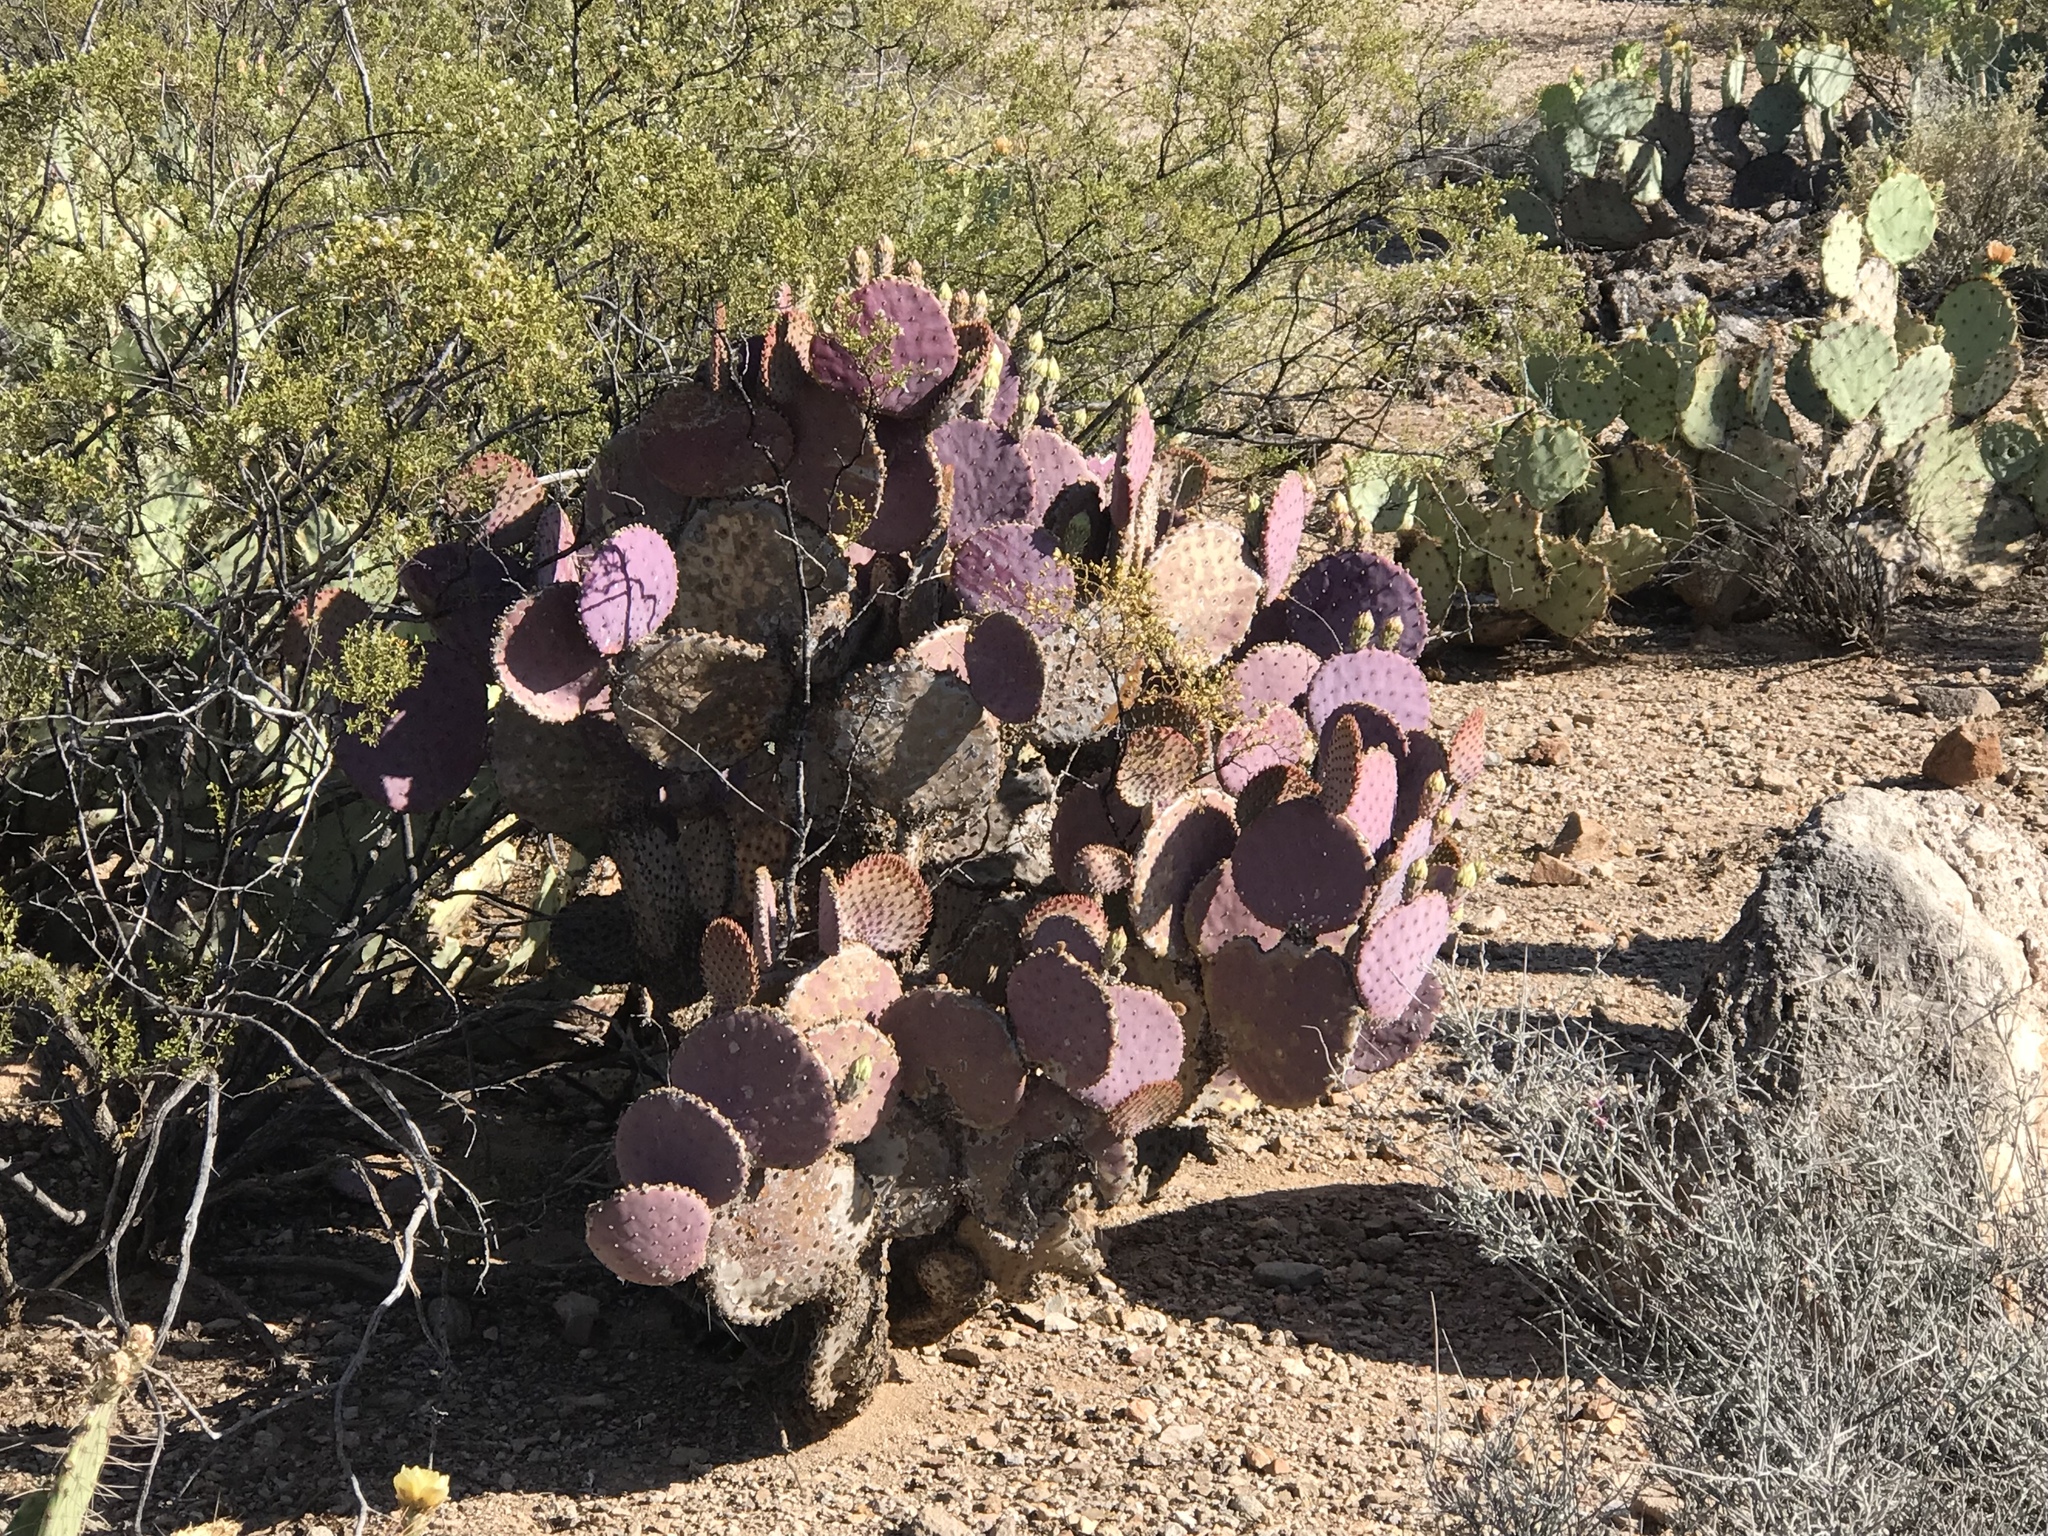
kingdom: Plantae
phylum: Tracheophyta
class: Magnoliopsida
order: Caryophyllales
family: Cactaceae
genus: Opuntia
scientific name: Opuntia gosseliniana
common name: Violet prickly-pear
